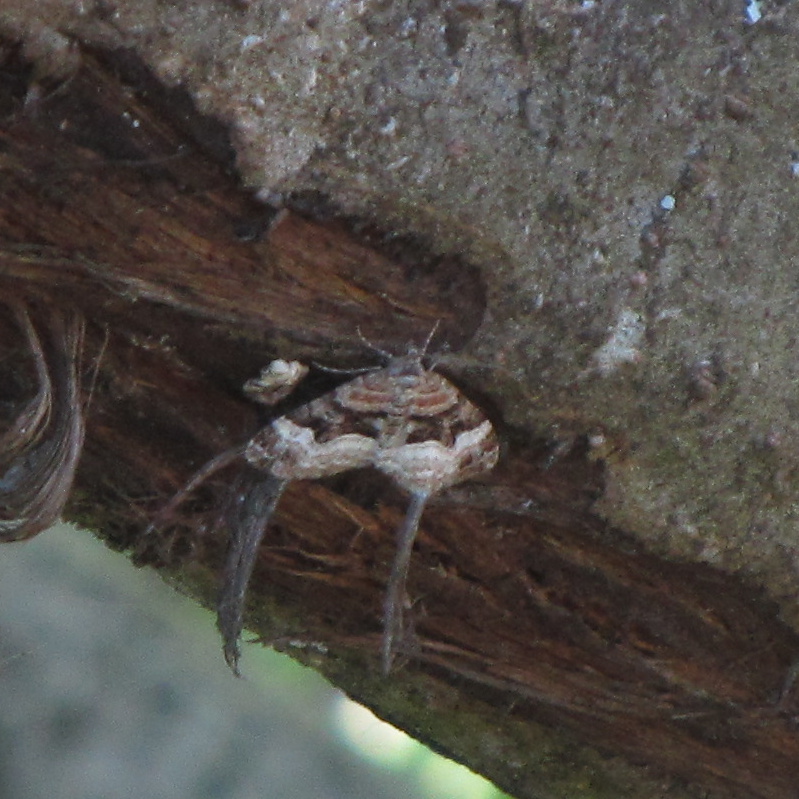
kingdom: Animalia
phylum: Arthropoda
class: Insecta
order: Lepidoptera
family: Geometridae
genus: Xanthorhoe
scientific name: Xanthorhoe biriviata
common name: Balsam carpet
